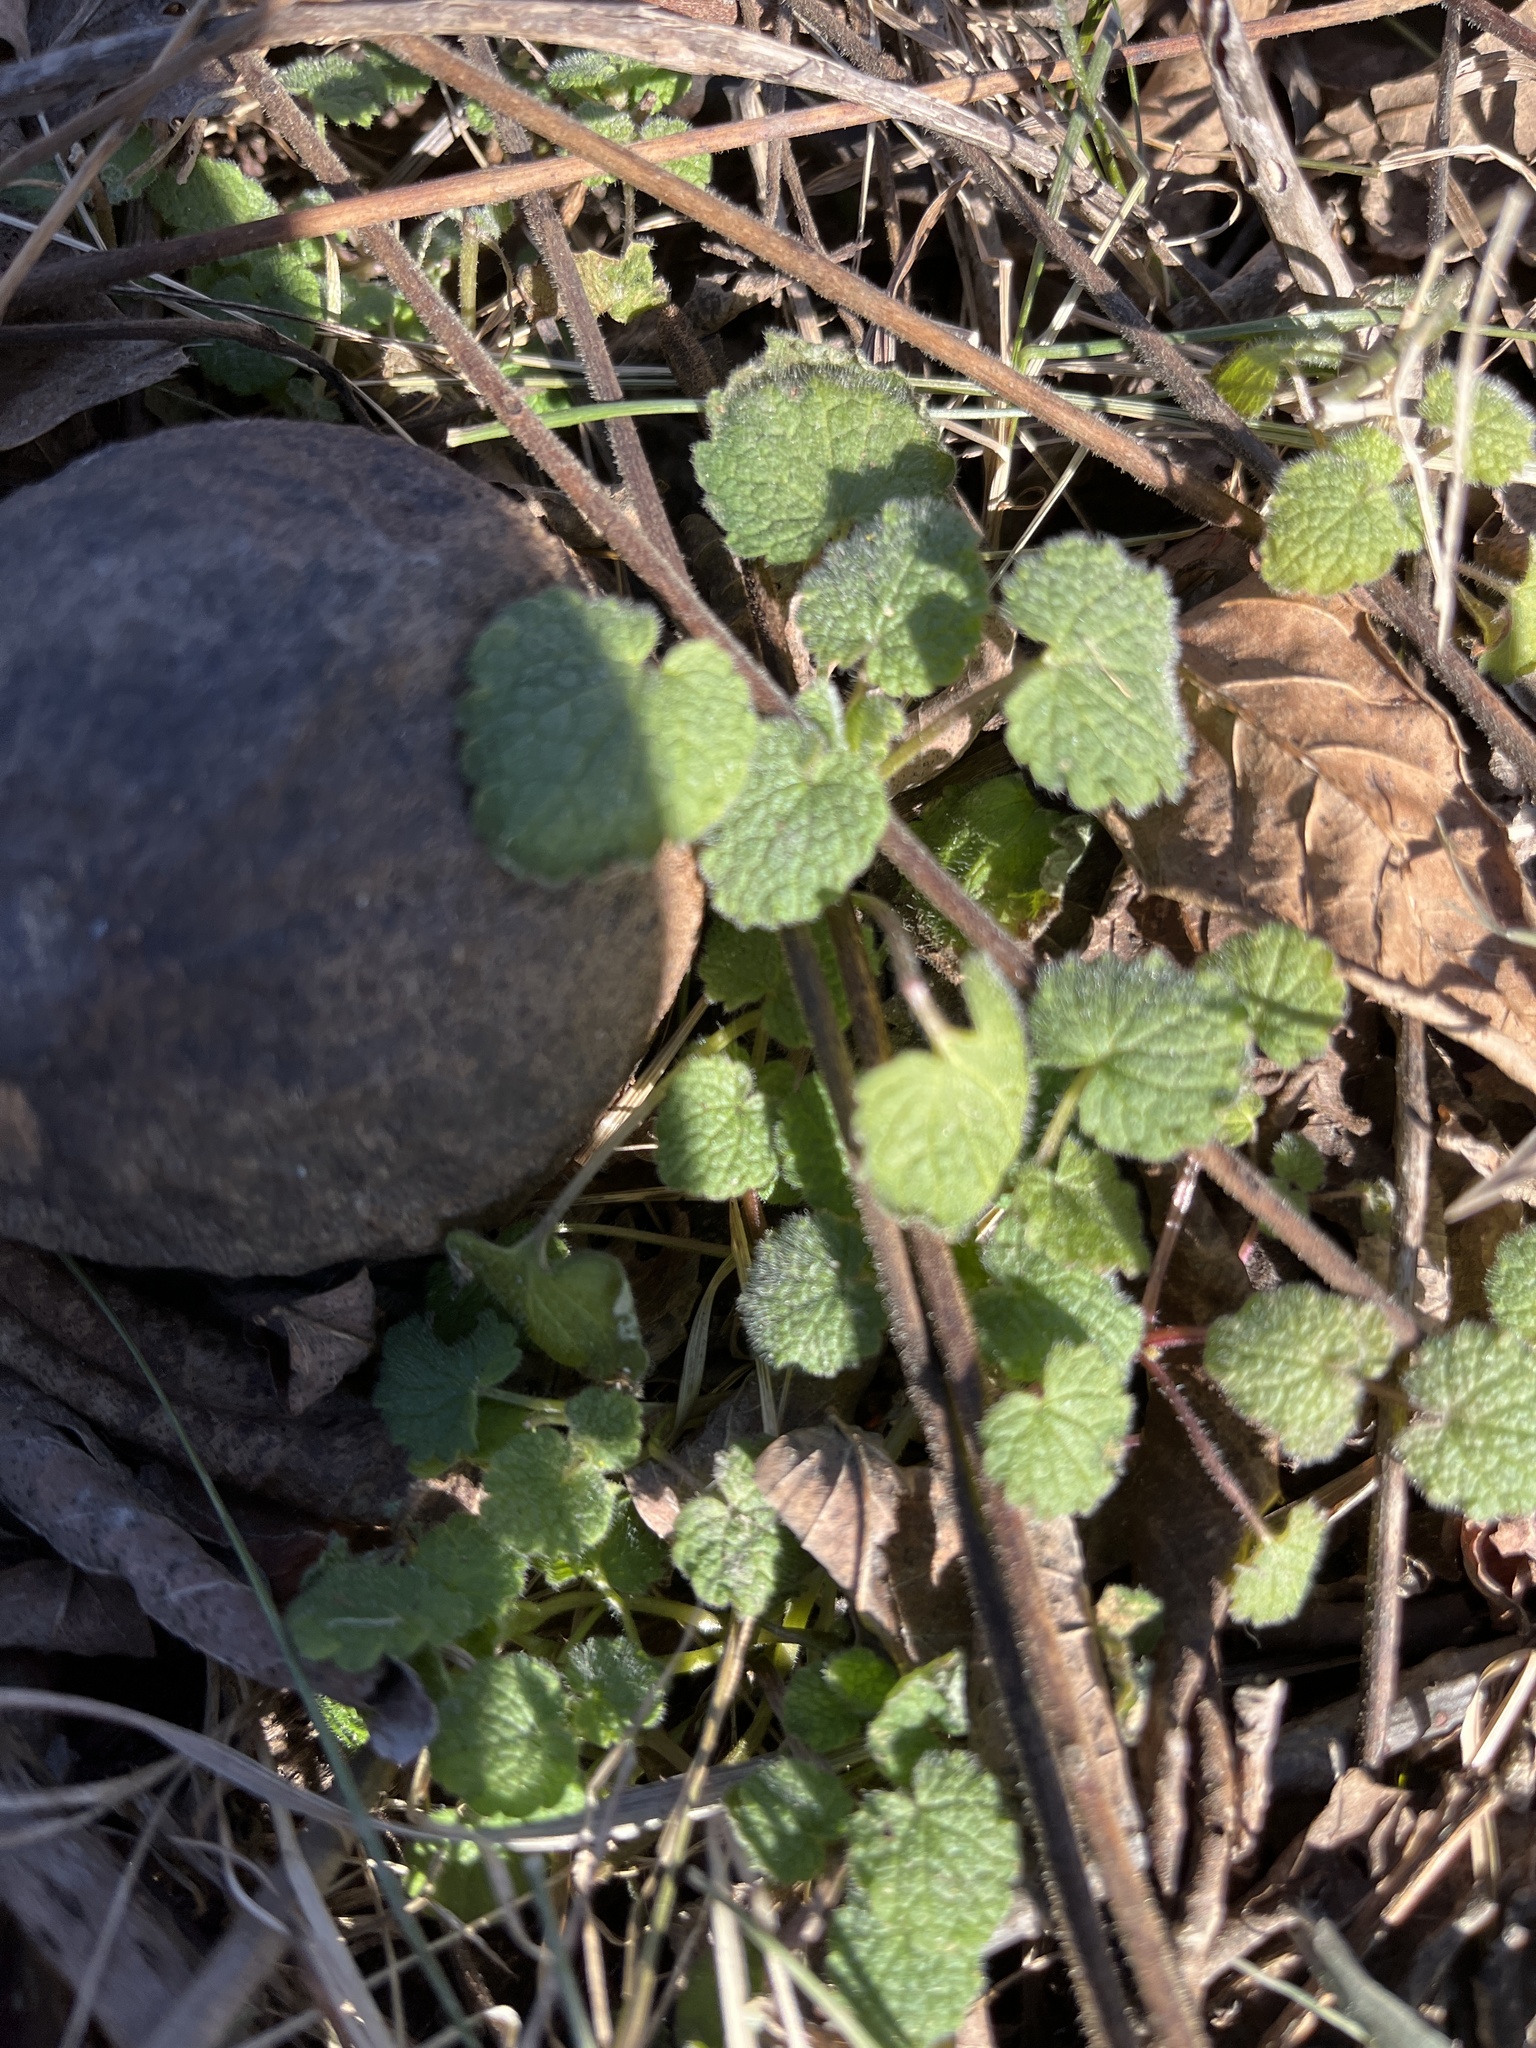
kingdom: Plantae
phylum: Tracheophyta
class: Magnoliopsida
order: Lamiales
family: Lamiaceae
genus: Lamium
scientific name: Lamium purpureum
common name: Red dead-nettle
